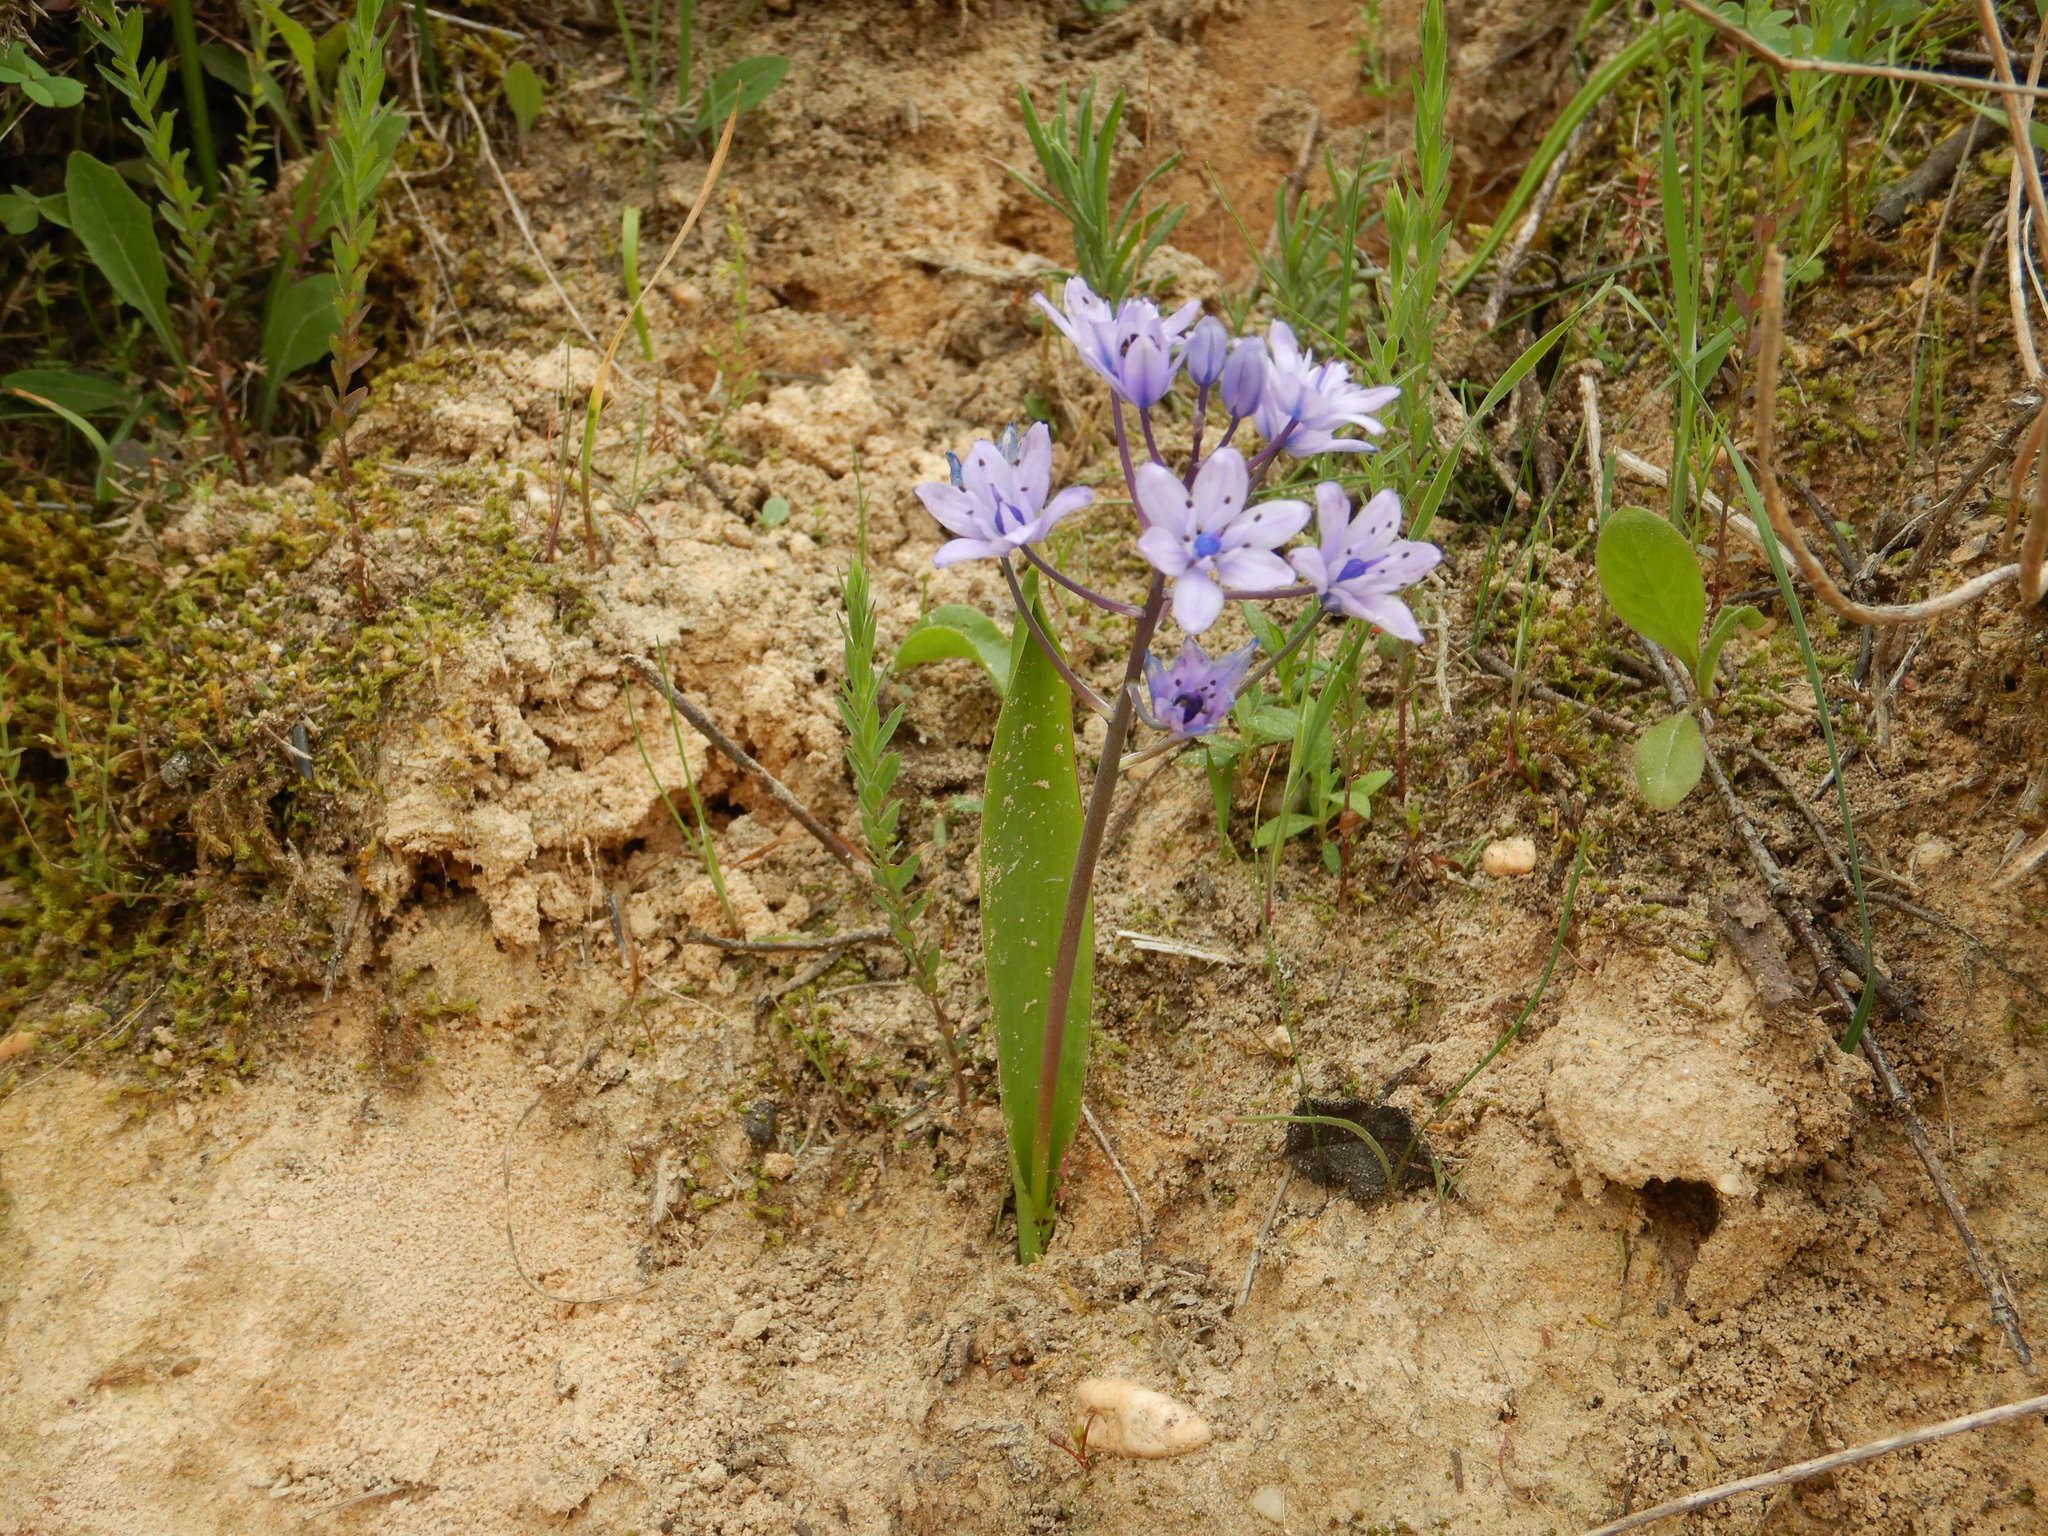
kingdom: Plantae
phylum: Tracheophyta
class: Liliopsida
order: Asparagales
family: Asparagaceae
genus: Scilla
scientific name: Scilla monophyllos
